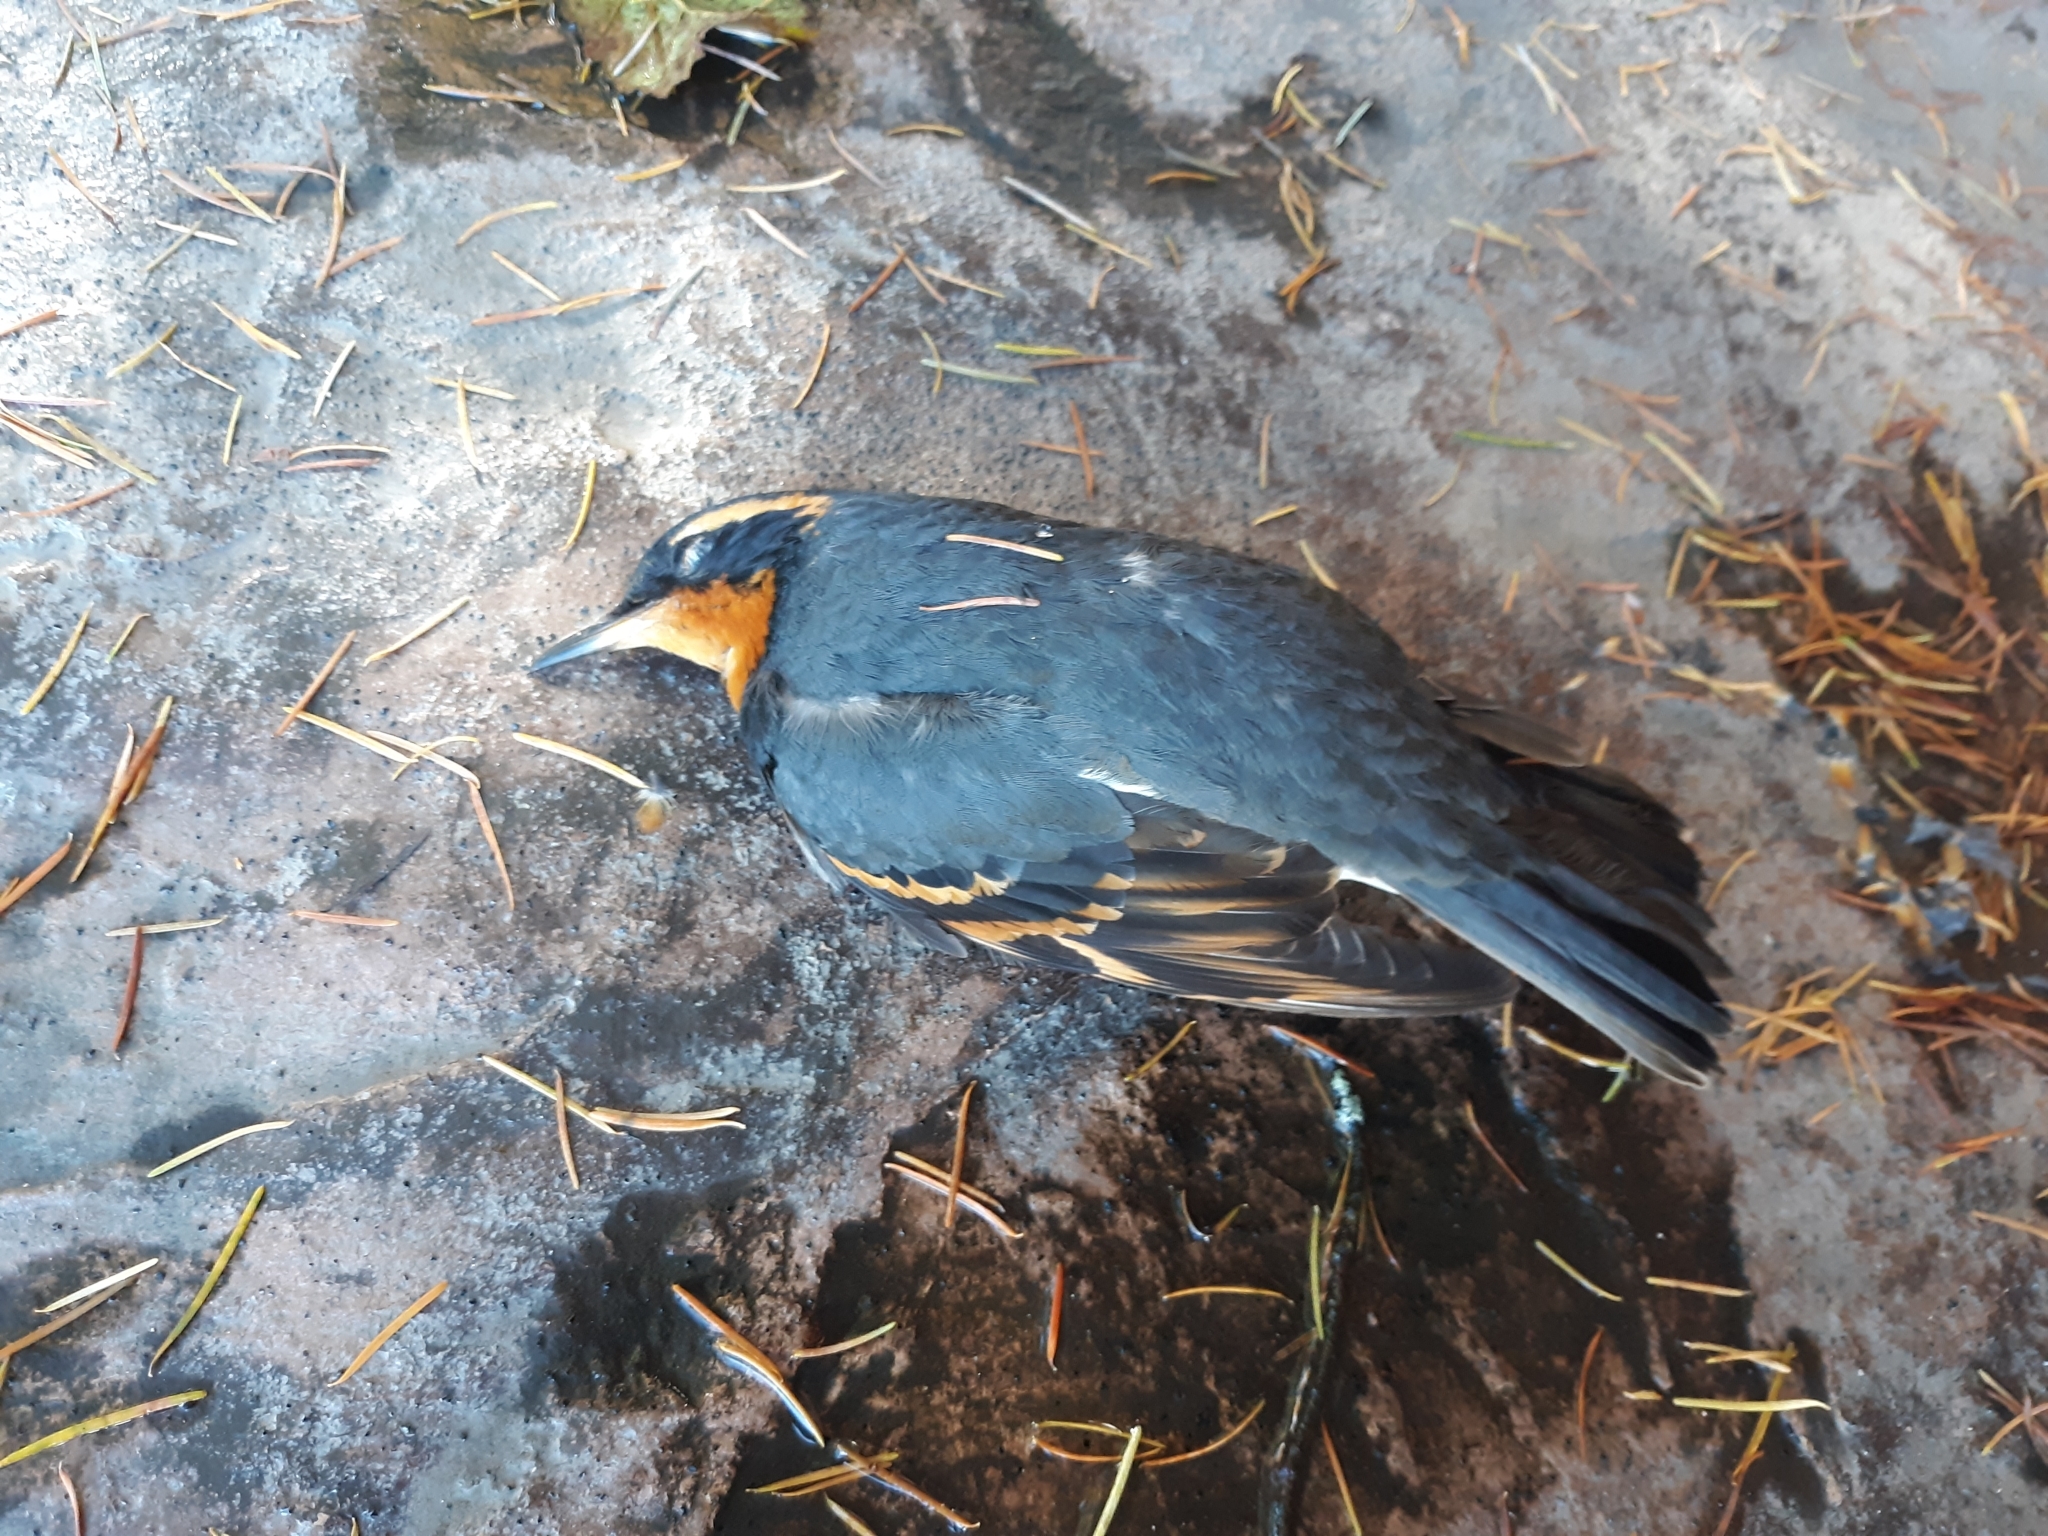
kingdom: Animalia
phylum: Chordata
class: Aves
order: Passeriformes
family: Turdidae
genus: Ixoreus
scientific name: Ixoreus naevius
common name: Varied thrush
